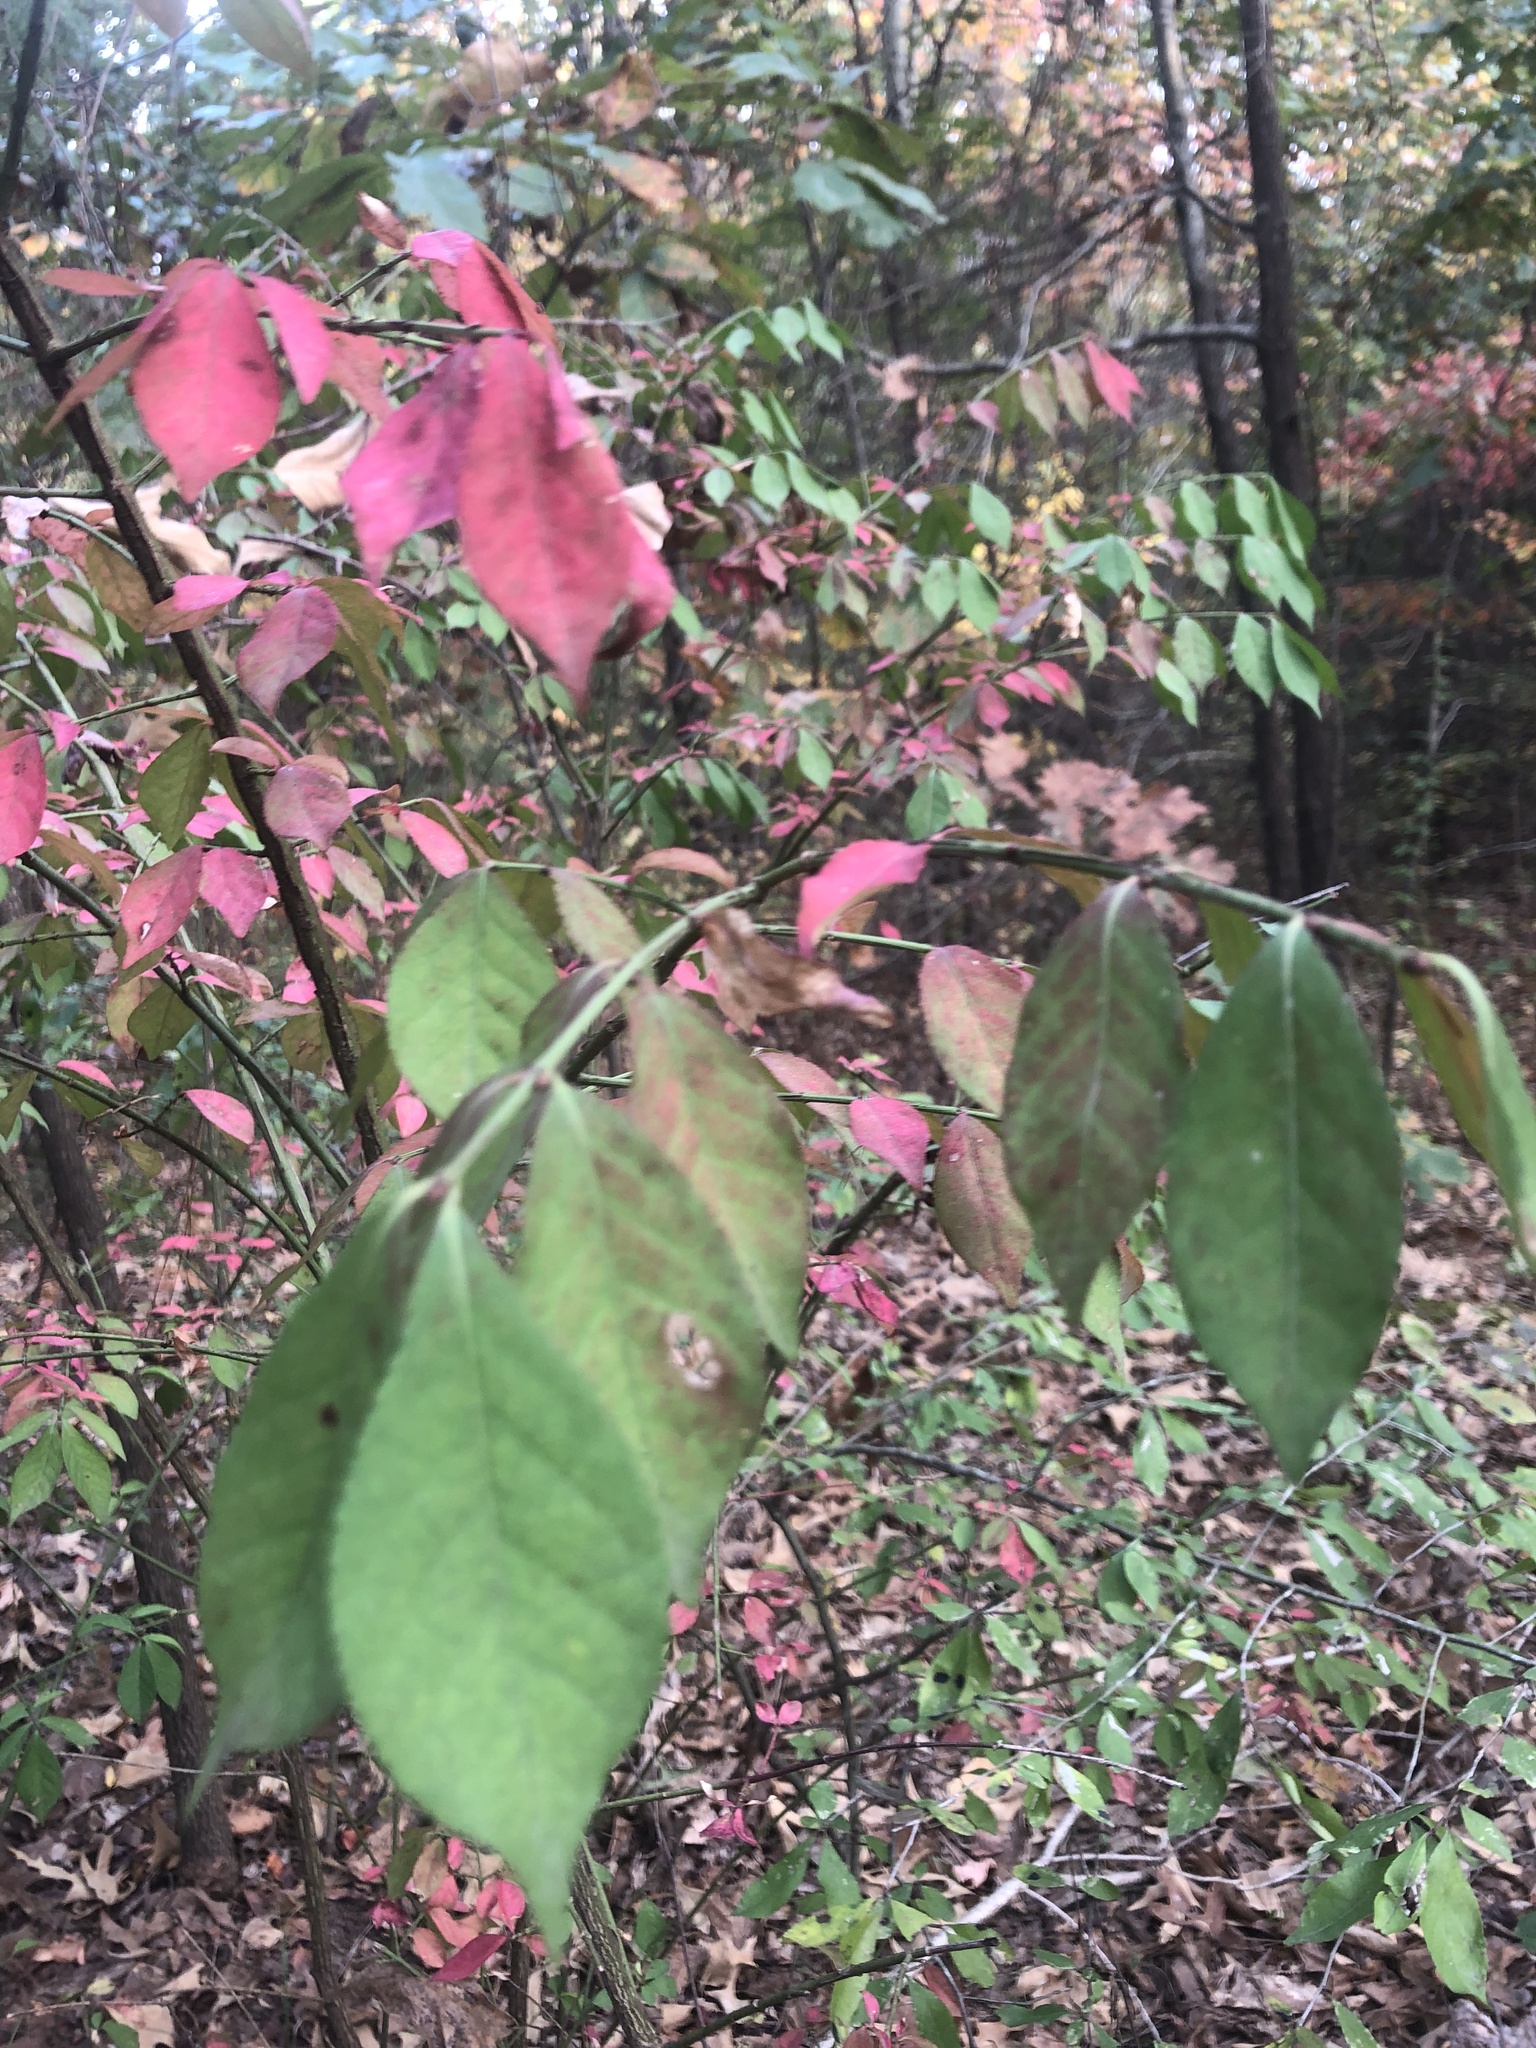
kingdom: Plantae
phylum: Tracheophyta
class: Magnoliopsida
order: Celastrales
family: Celastraceae
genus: Euonymus
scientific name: Euonymus alatus
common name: Winged euonymus
